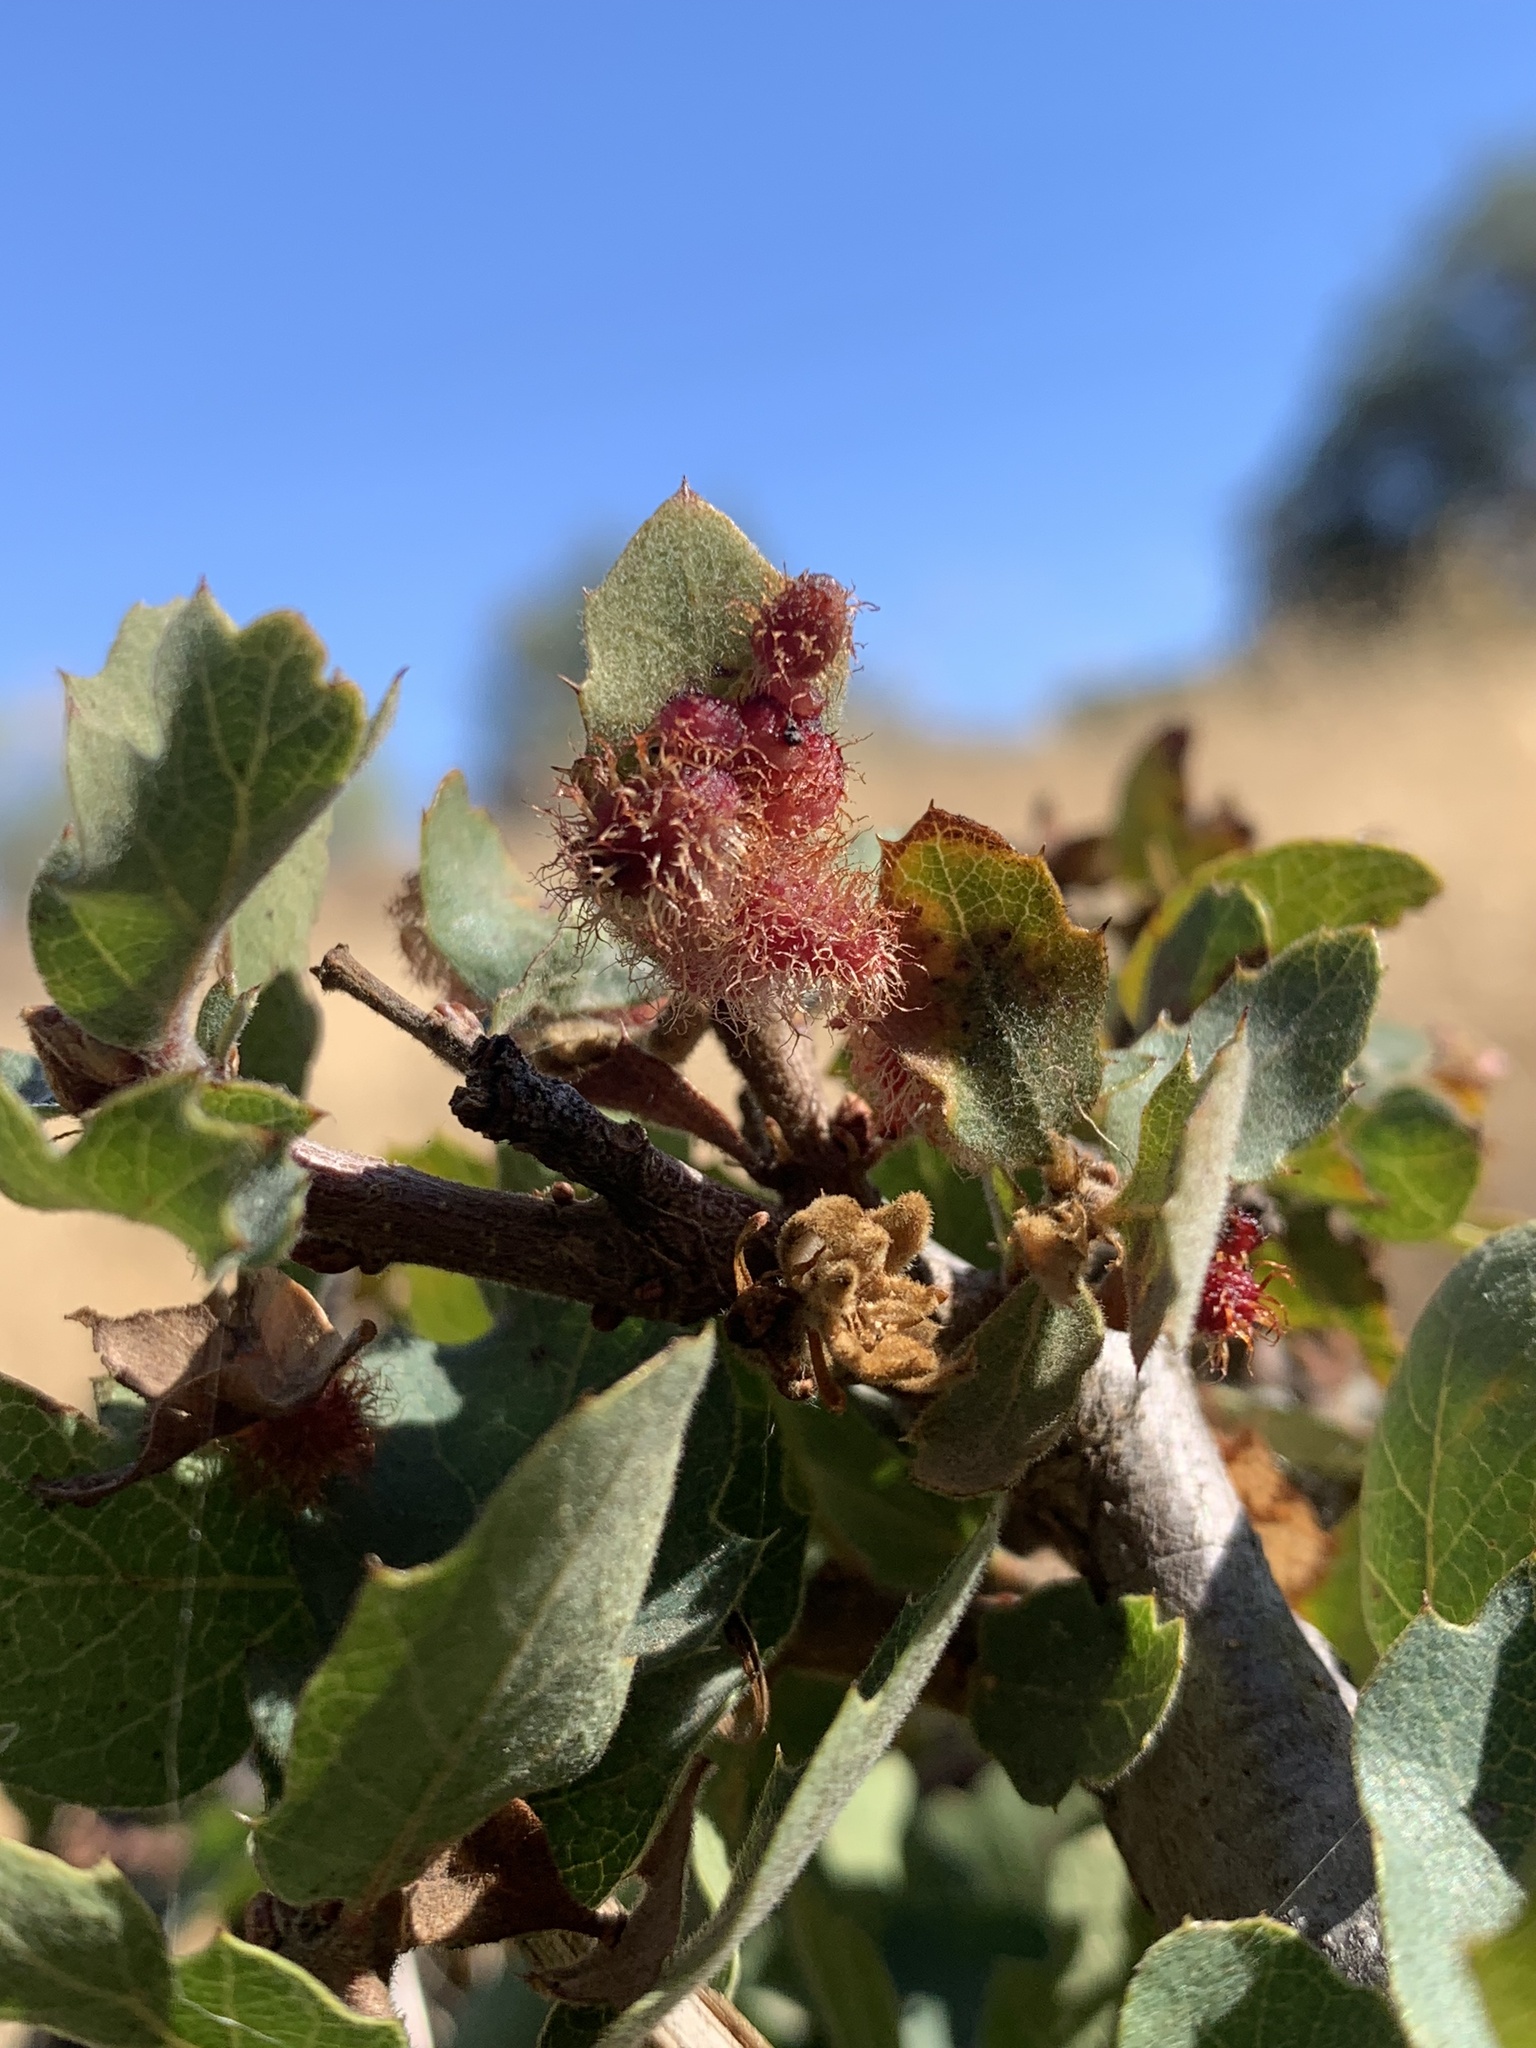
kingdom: Animalia
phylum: Arthropoda
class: Insecta
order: Hymenoptera
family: Cynipidae
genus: Andricus
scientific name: Andricus
